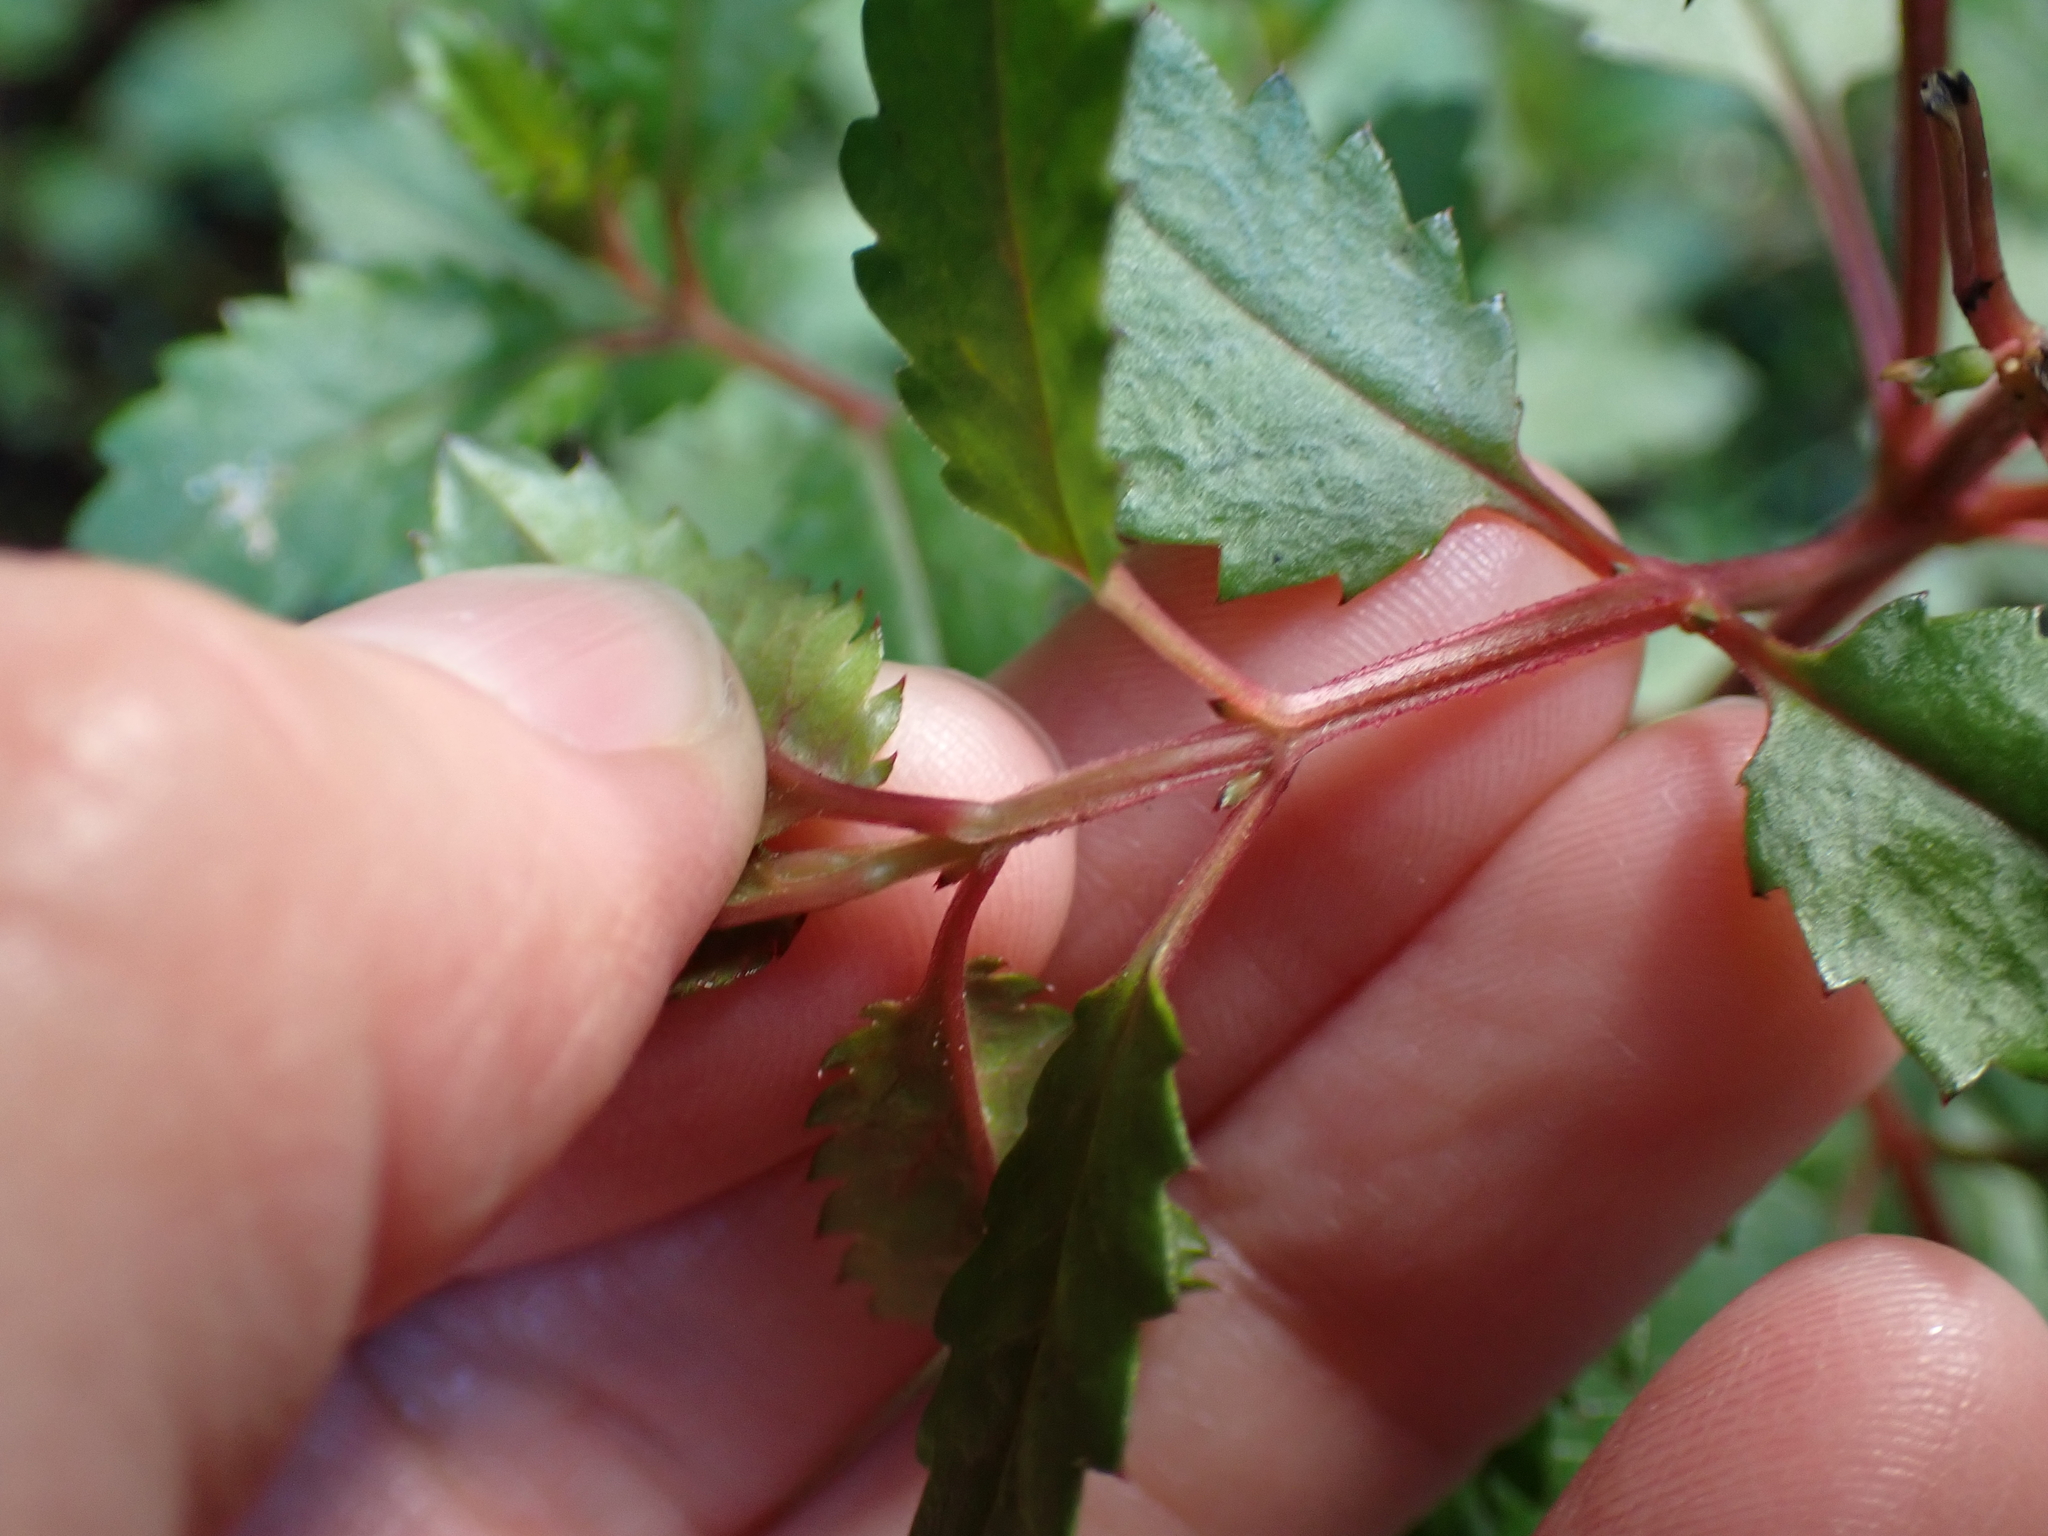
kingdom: Plantae
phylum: Tracheophyta
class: Magnoliopsida
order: Saxifragales
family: Haloragaceae
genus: Haloragis
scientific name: Haloragis erecta
